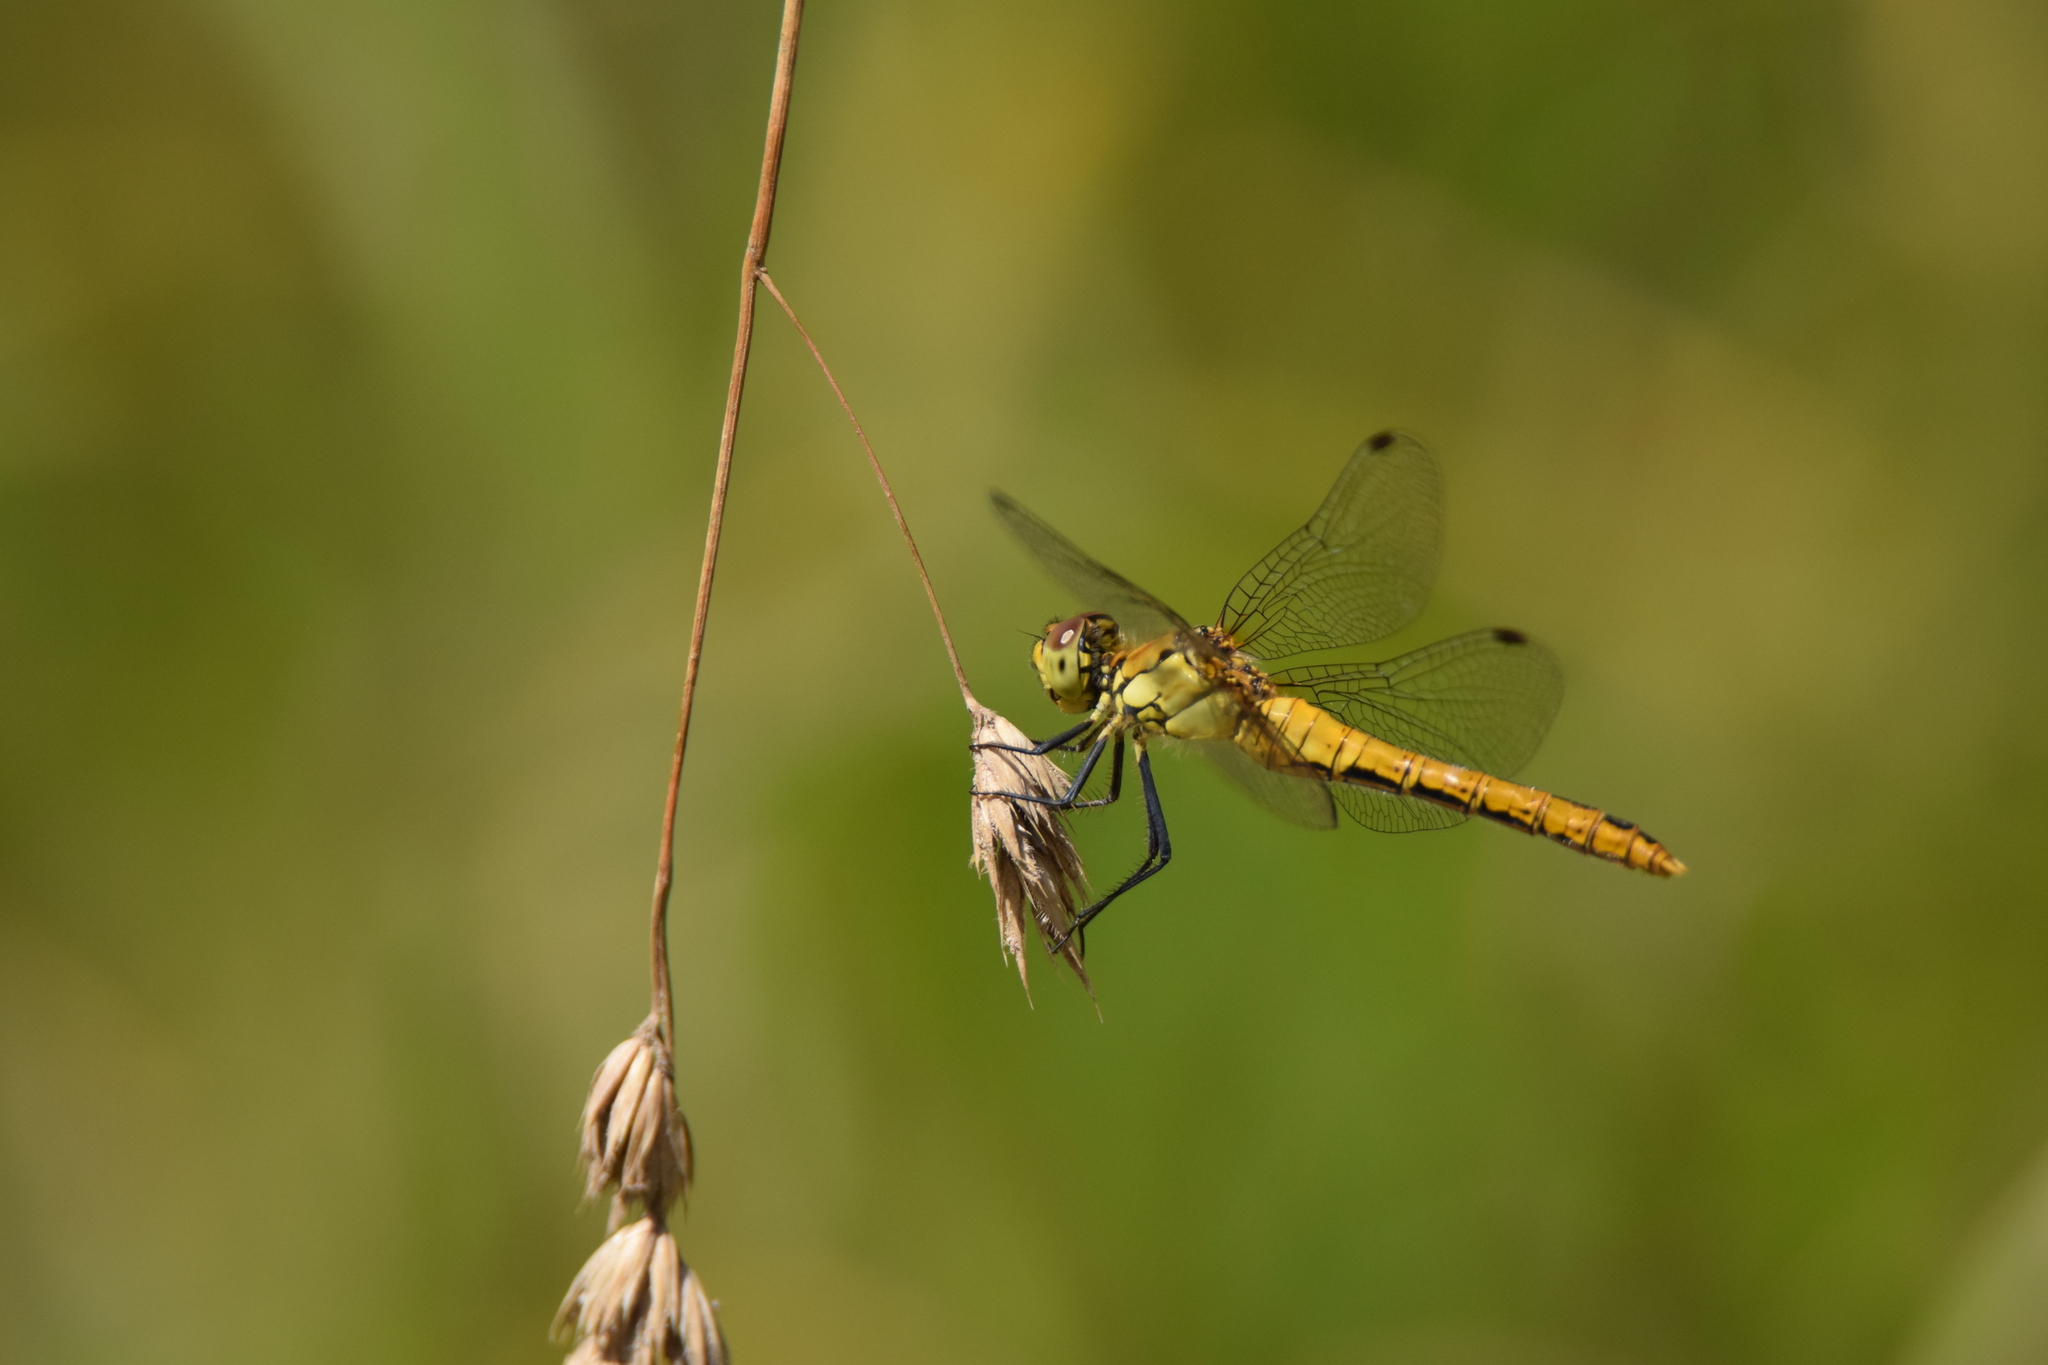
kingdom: Animalia
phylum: Arthropoda
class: Insecta
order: Odonata
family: Libellulidae
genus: Sympetrum
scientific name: Sympetrum sanguineum
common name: Ruddy darter
